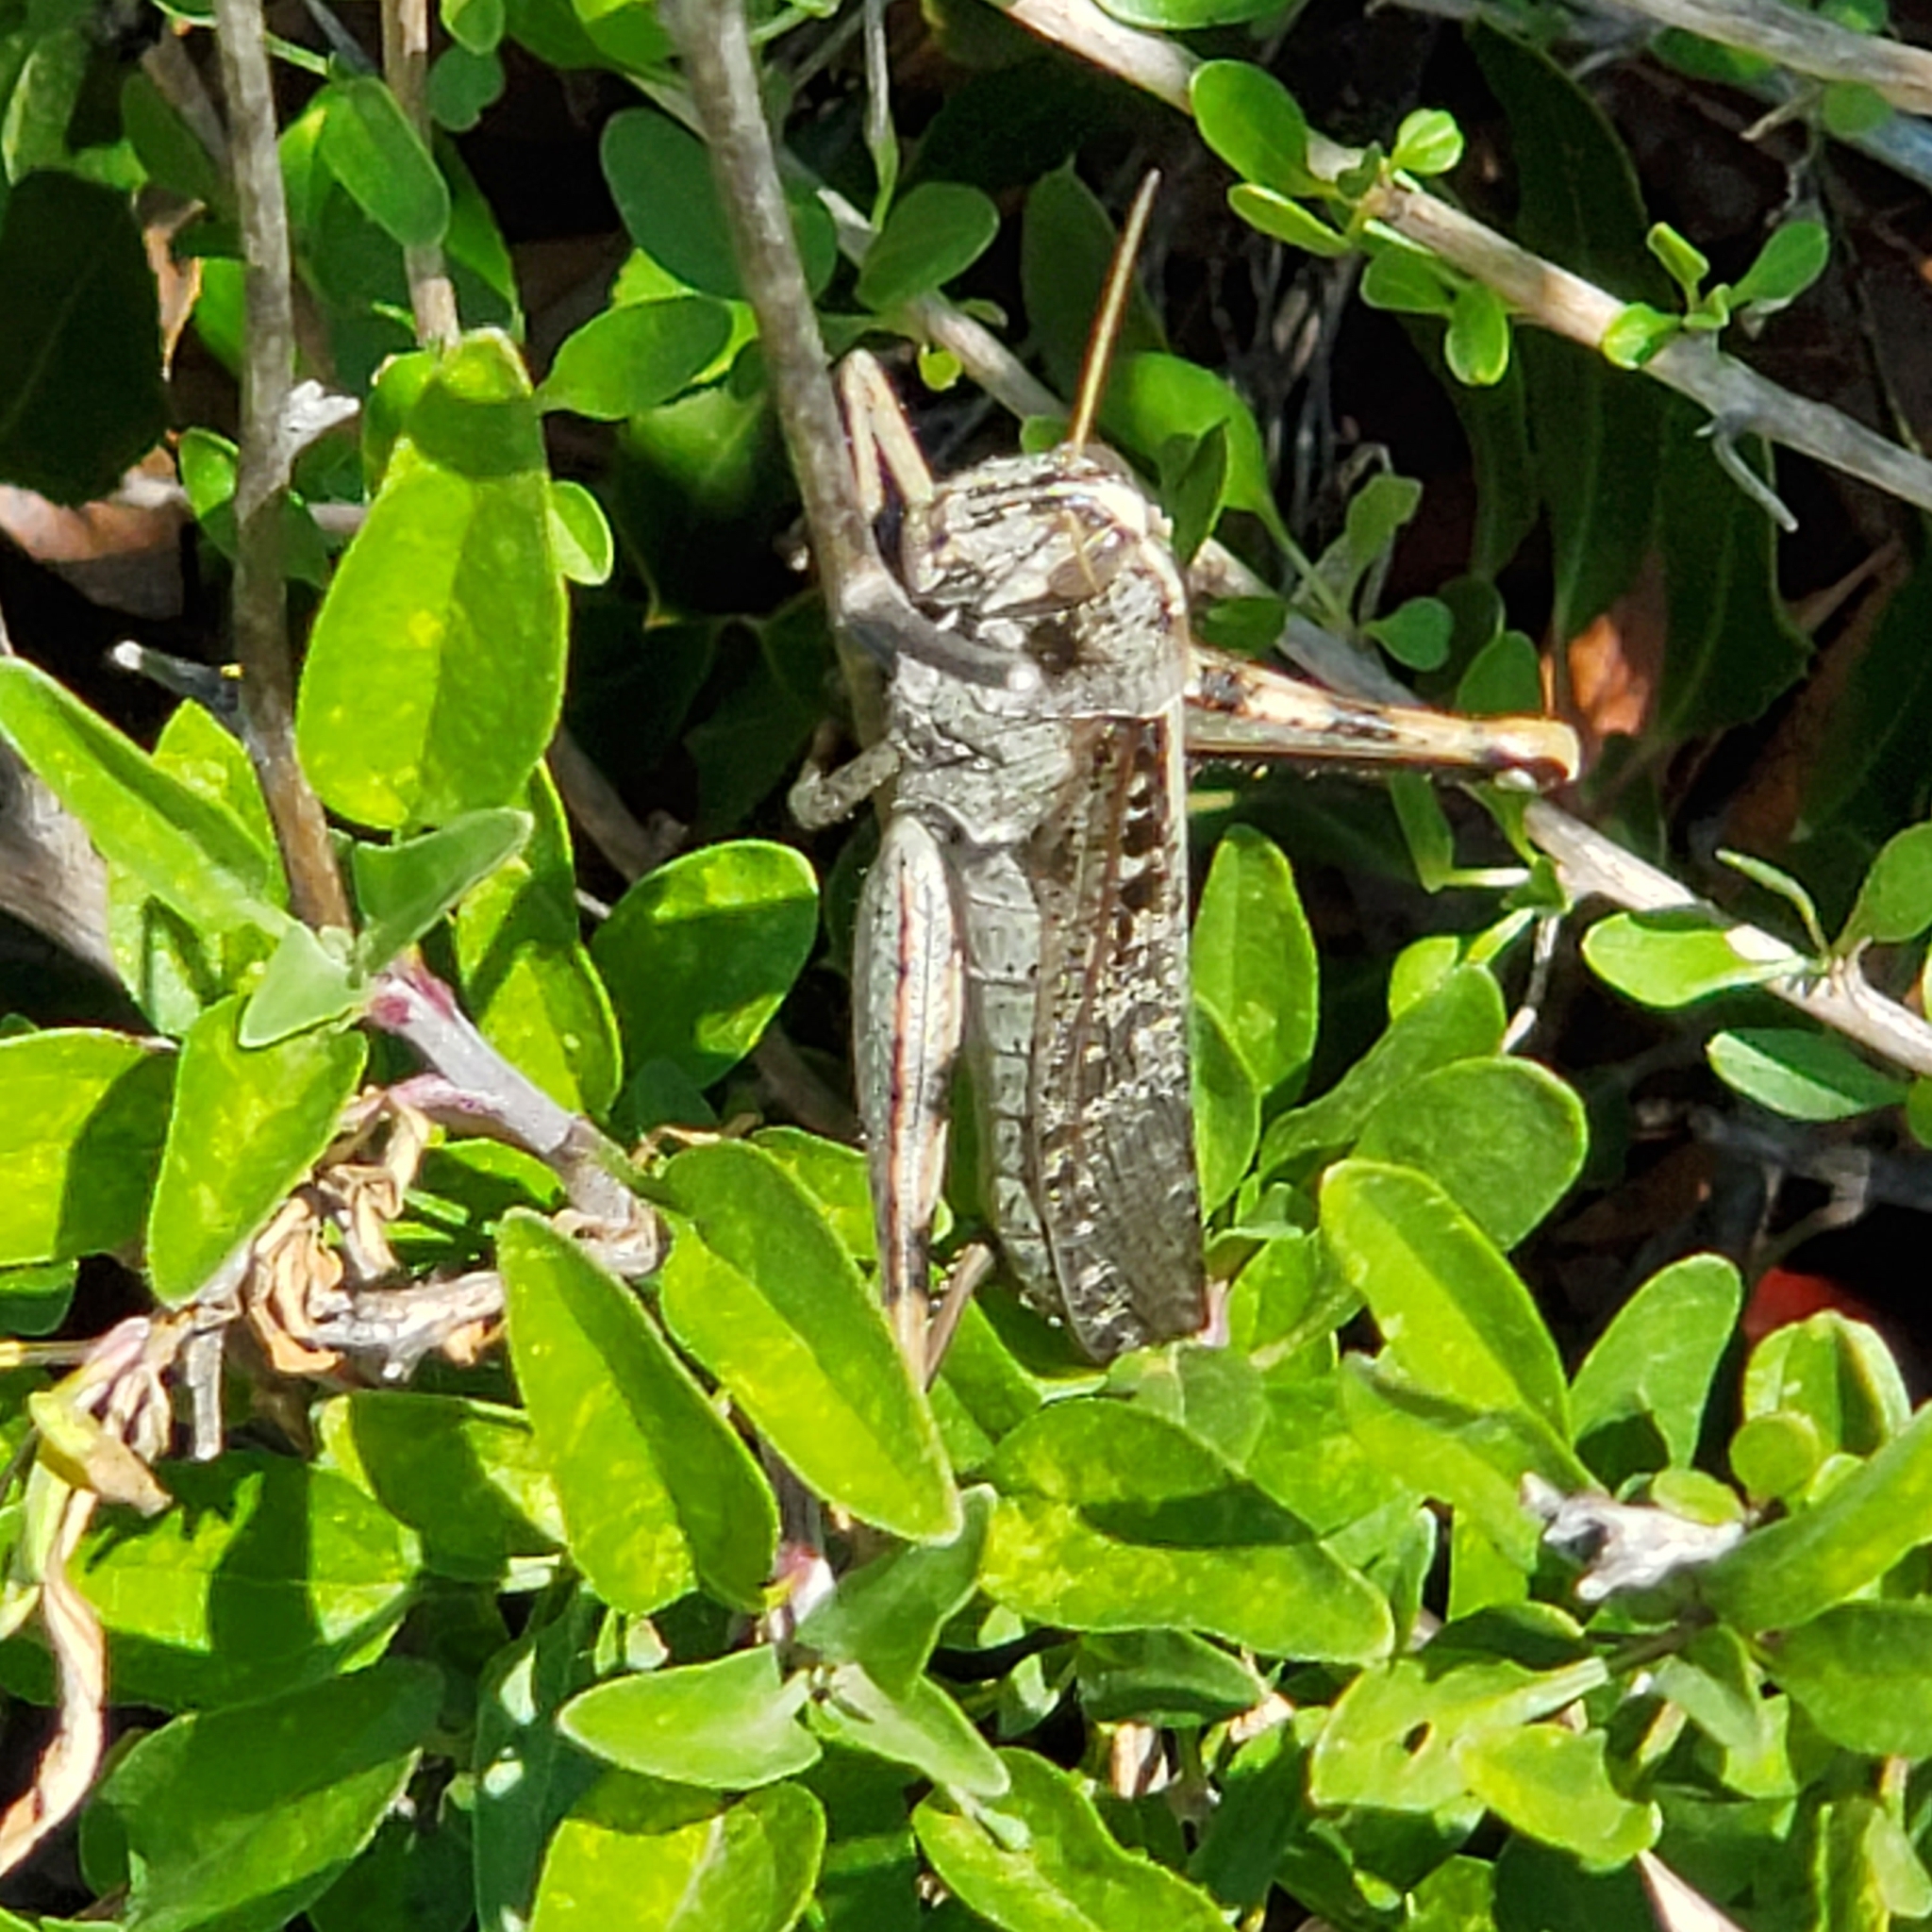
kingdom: Animalia
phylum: Arthropoda
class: Insecta
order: Orthoptera
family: Acrididae
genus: Schistocerca
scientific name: Schistocerca nitens
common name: Vagrant grasshopper
